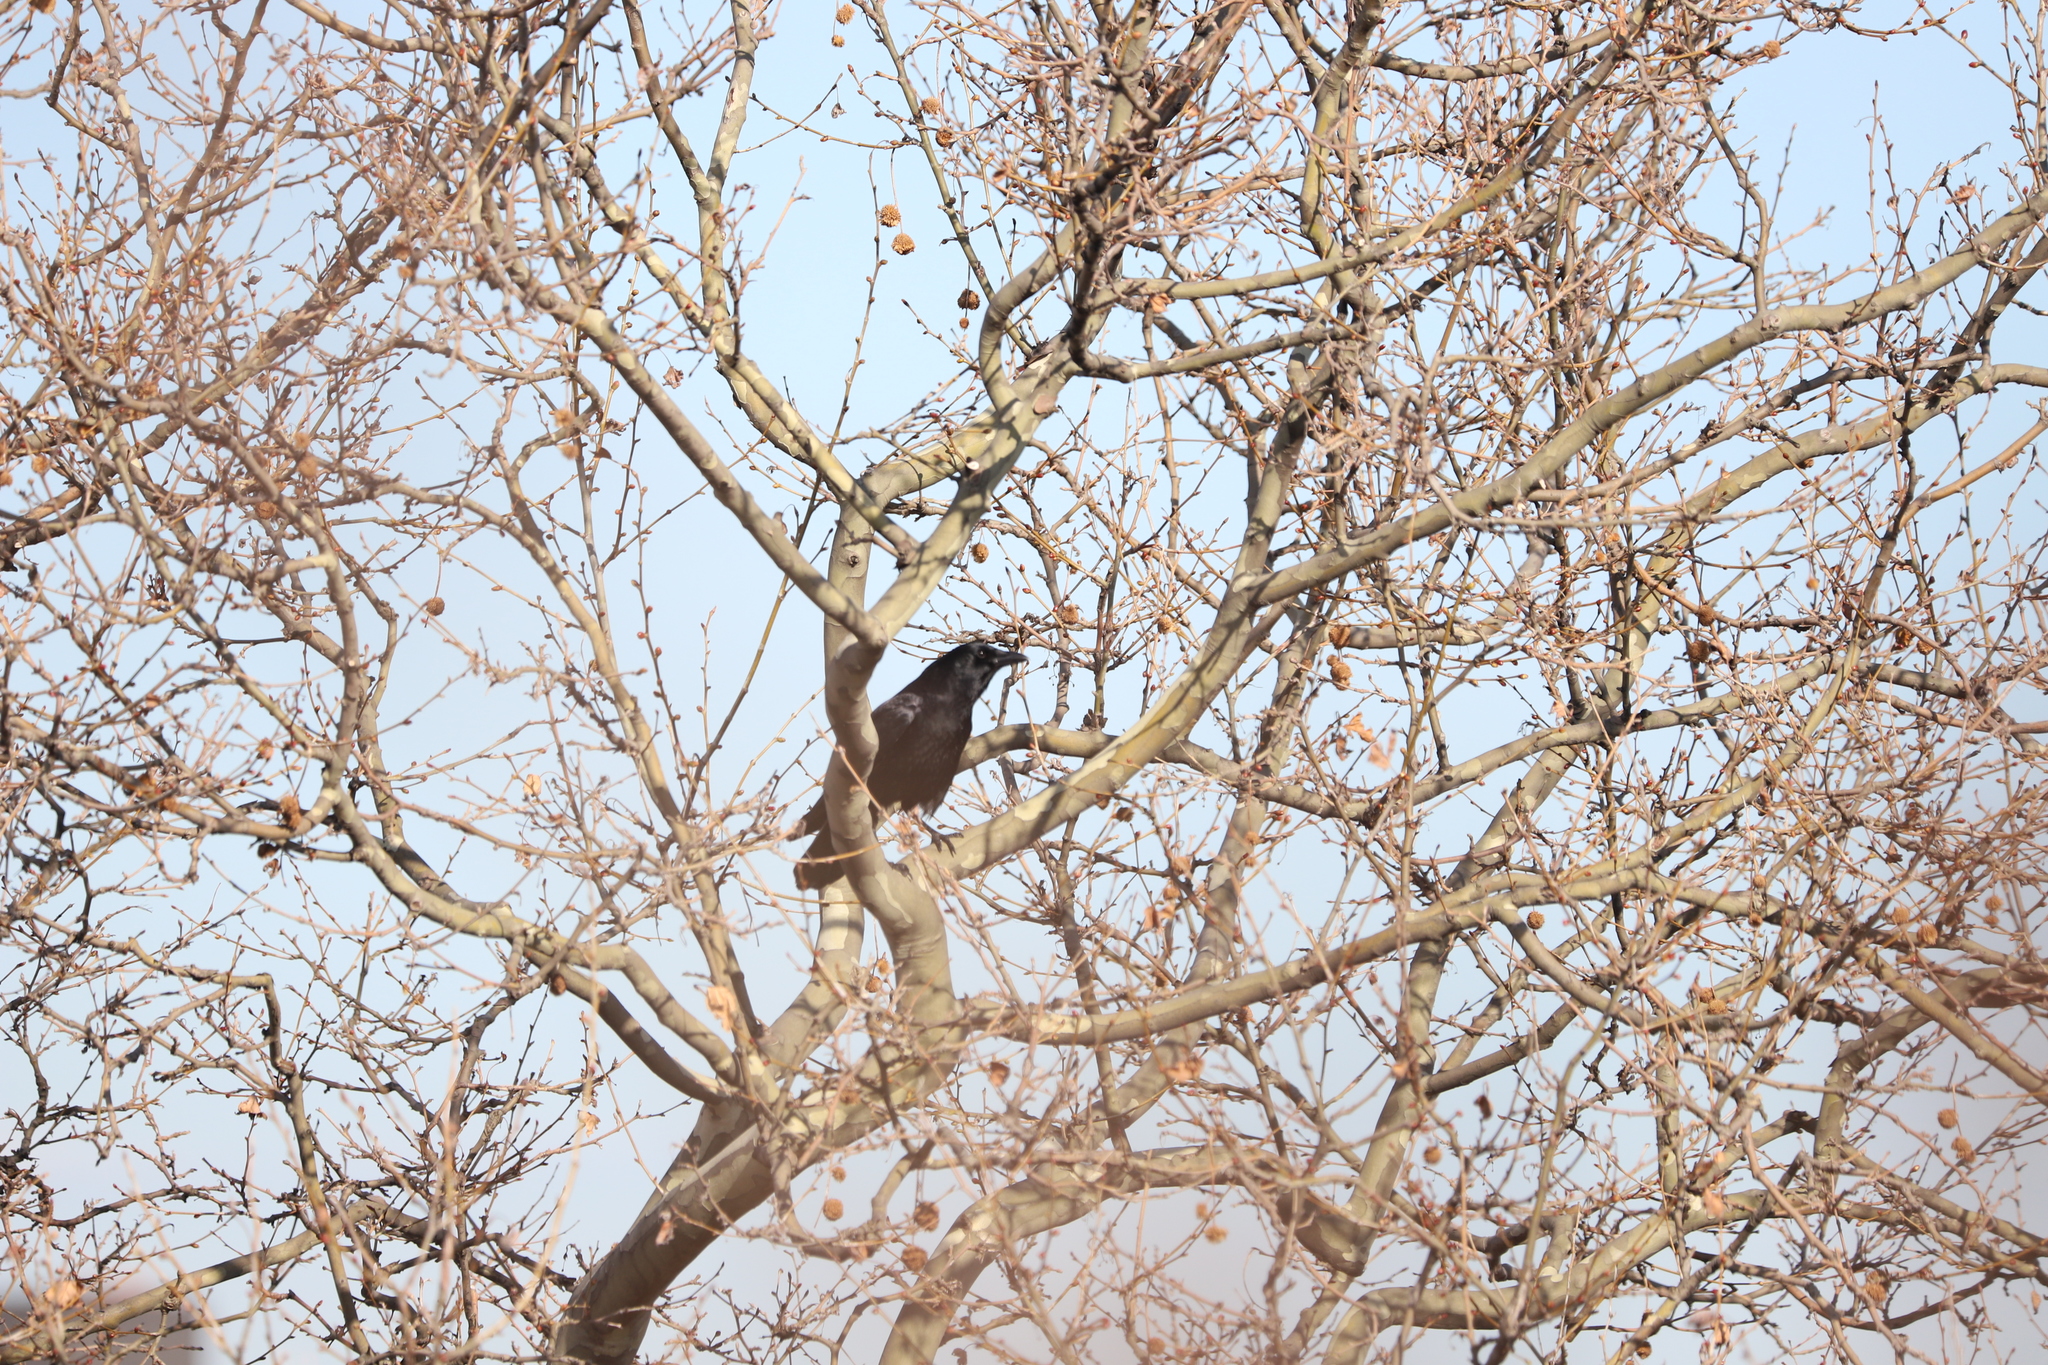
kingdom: Animalia
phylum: Chordata
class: Aves
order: Passeriformes
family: Corvidae
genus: Corvus
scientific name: Corvus brachyrhynchos
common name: American crow
